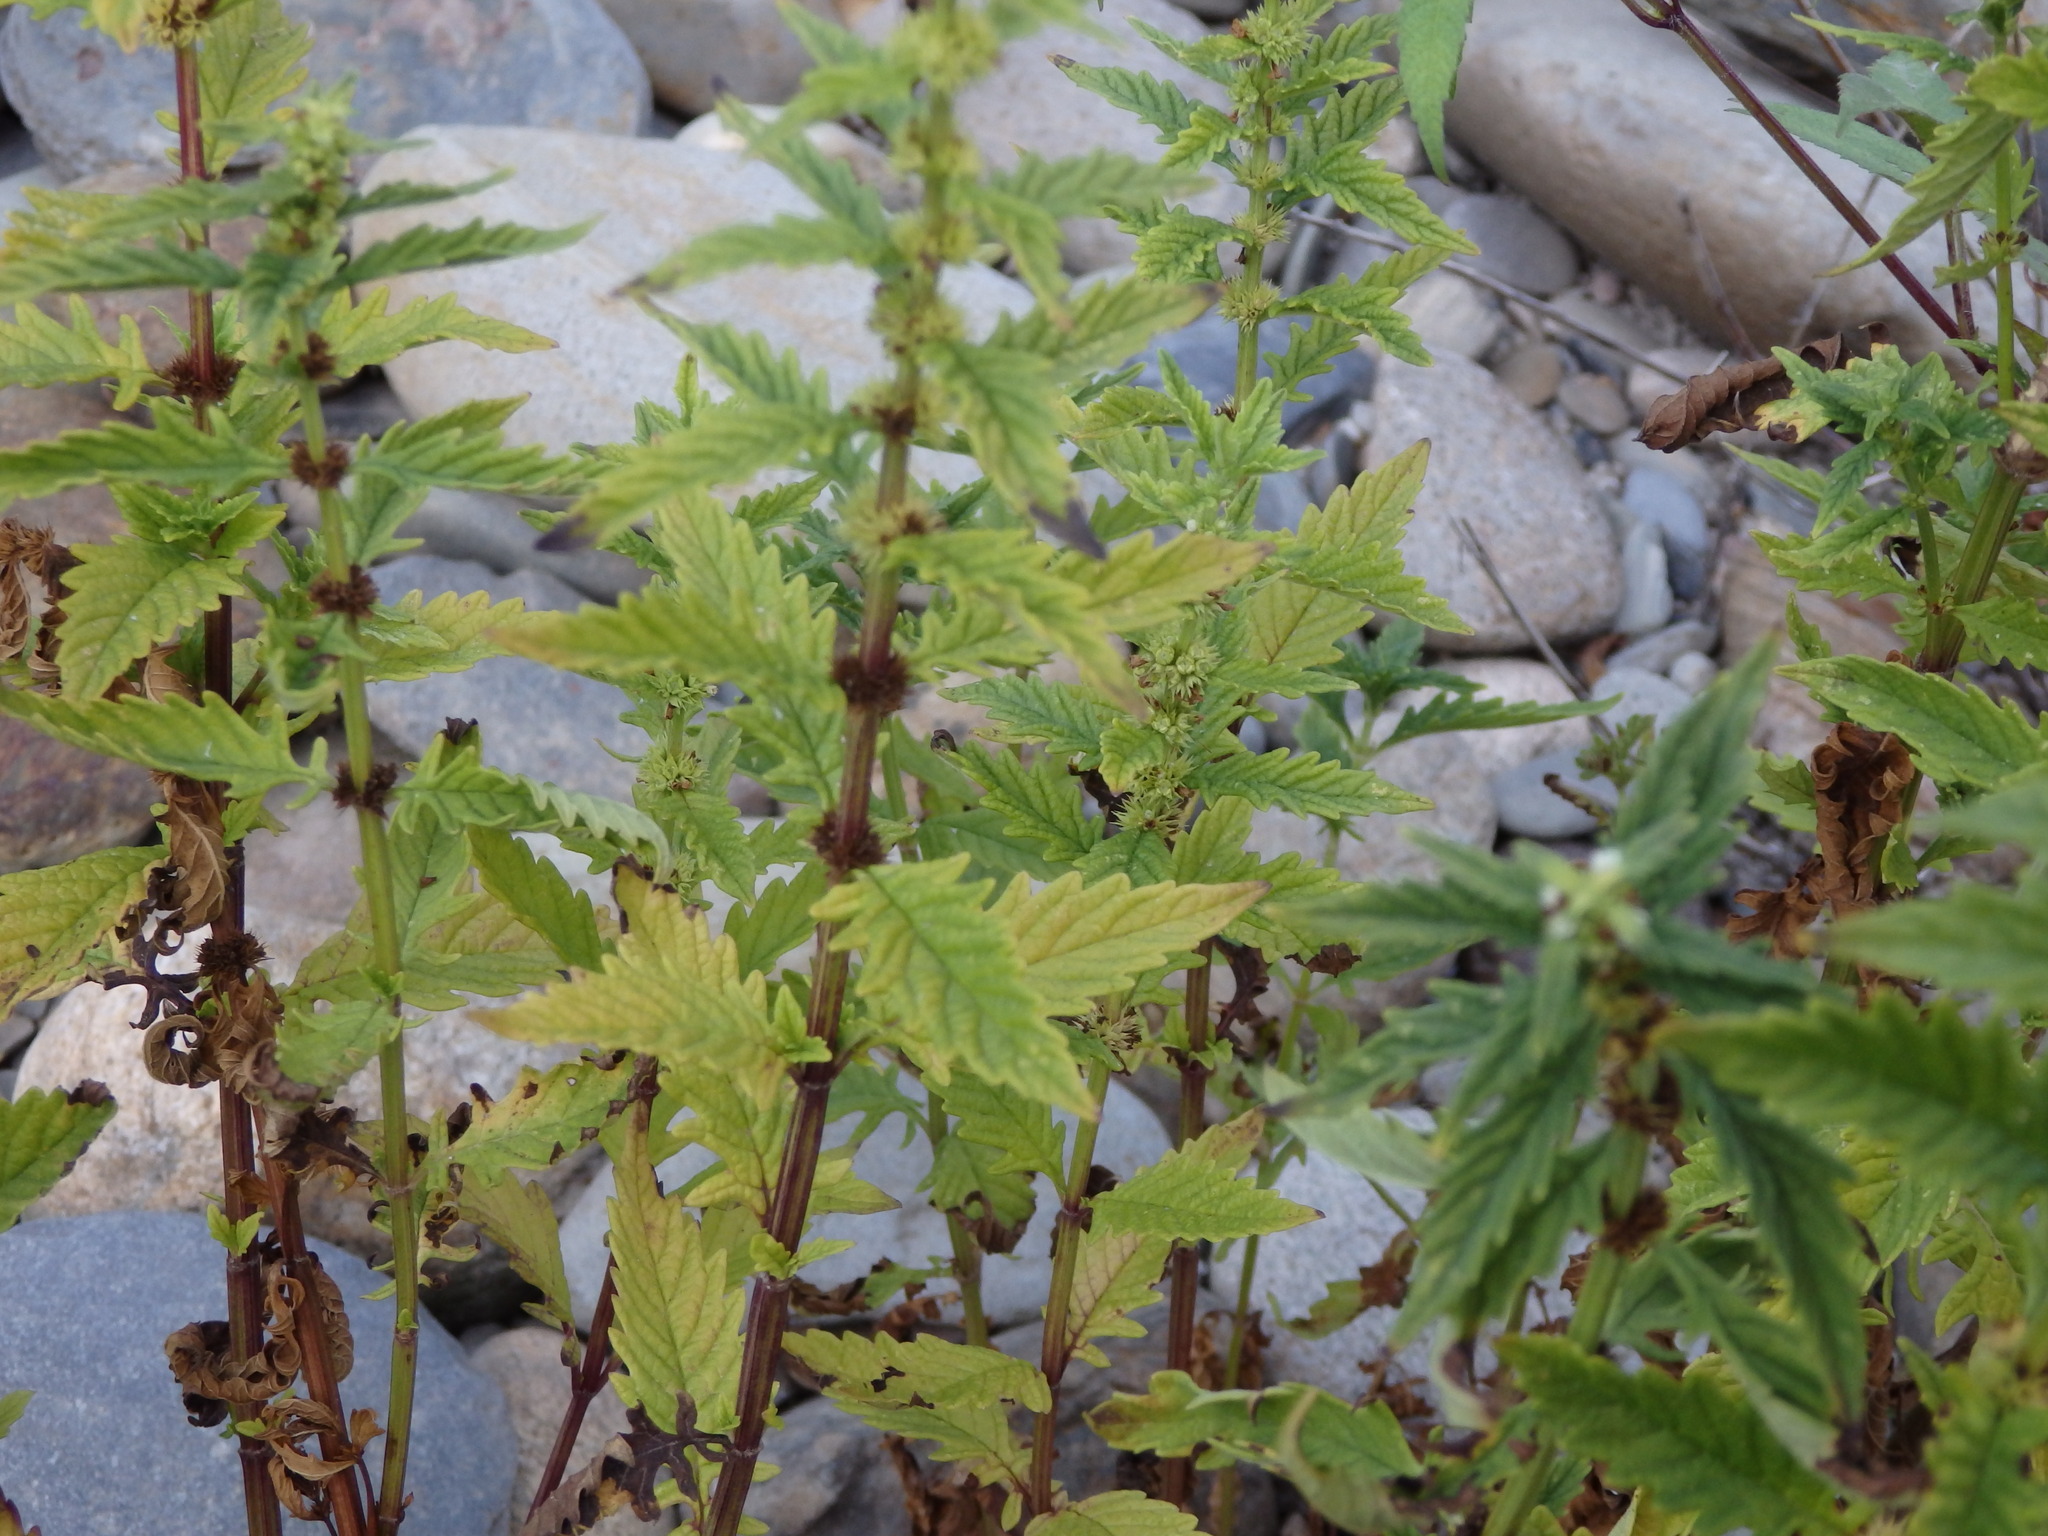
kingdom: Plantae
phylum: Tracheophyta
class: Magnoliopsida
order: Lamiales
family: Lamiaceae
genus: Lycopus
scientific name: Lycopus europaeus
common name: European bugleweed
